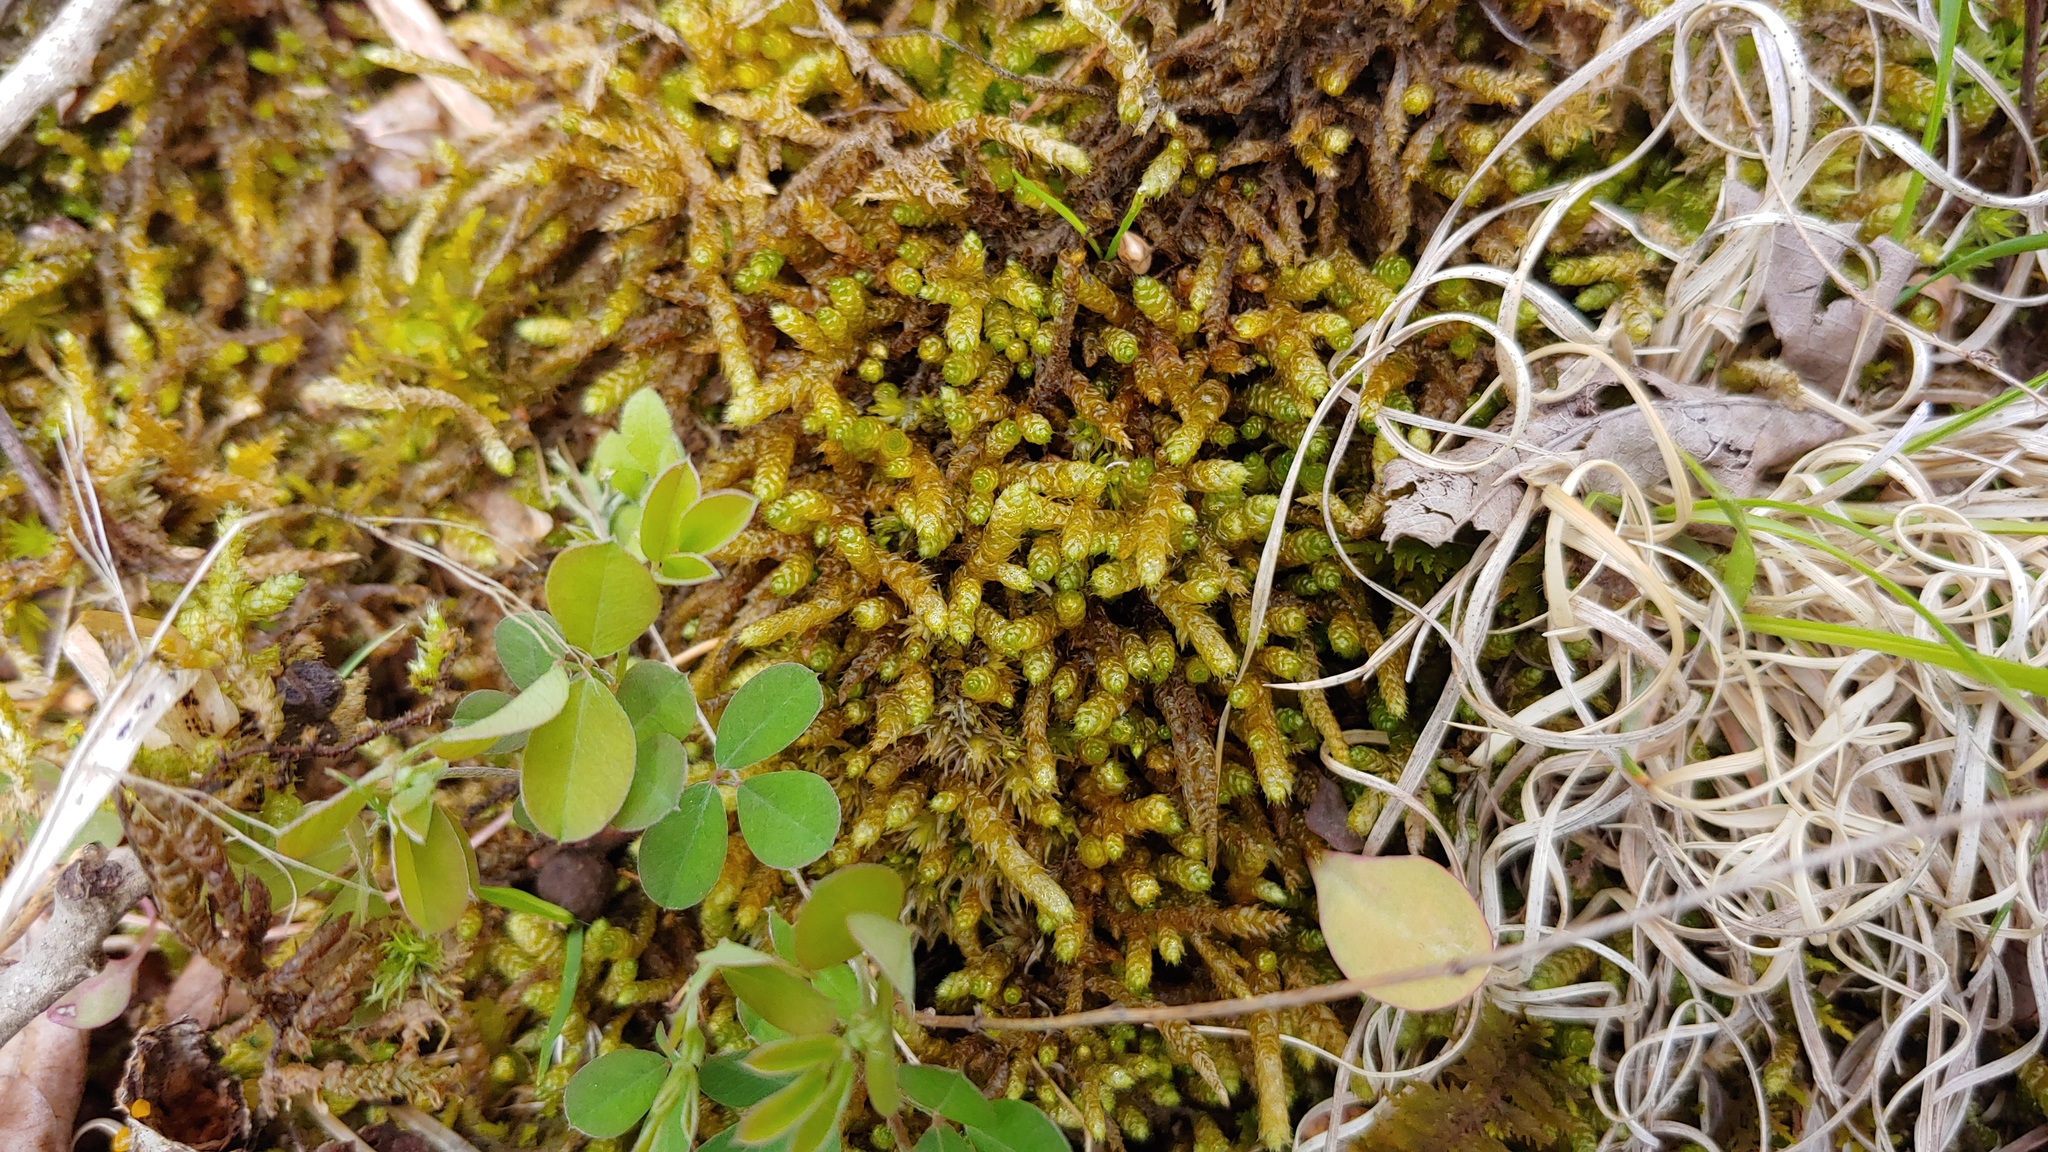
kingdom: Plantae
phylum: Bryophyta
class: Bryopsida
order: Hypnales
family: Brachytheciaceae
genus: Bryoandersonia
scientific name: Bryoandersonia illecebra
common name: Spoon-leaved moss
